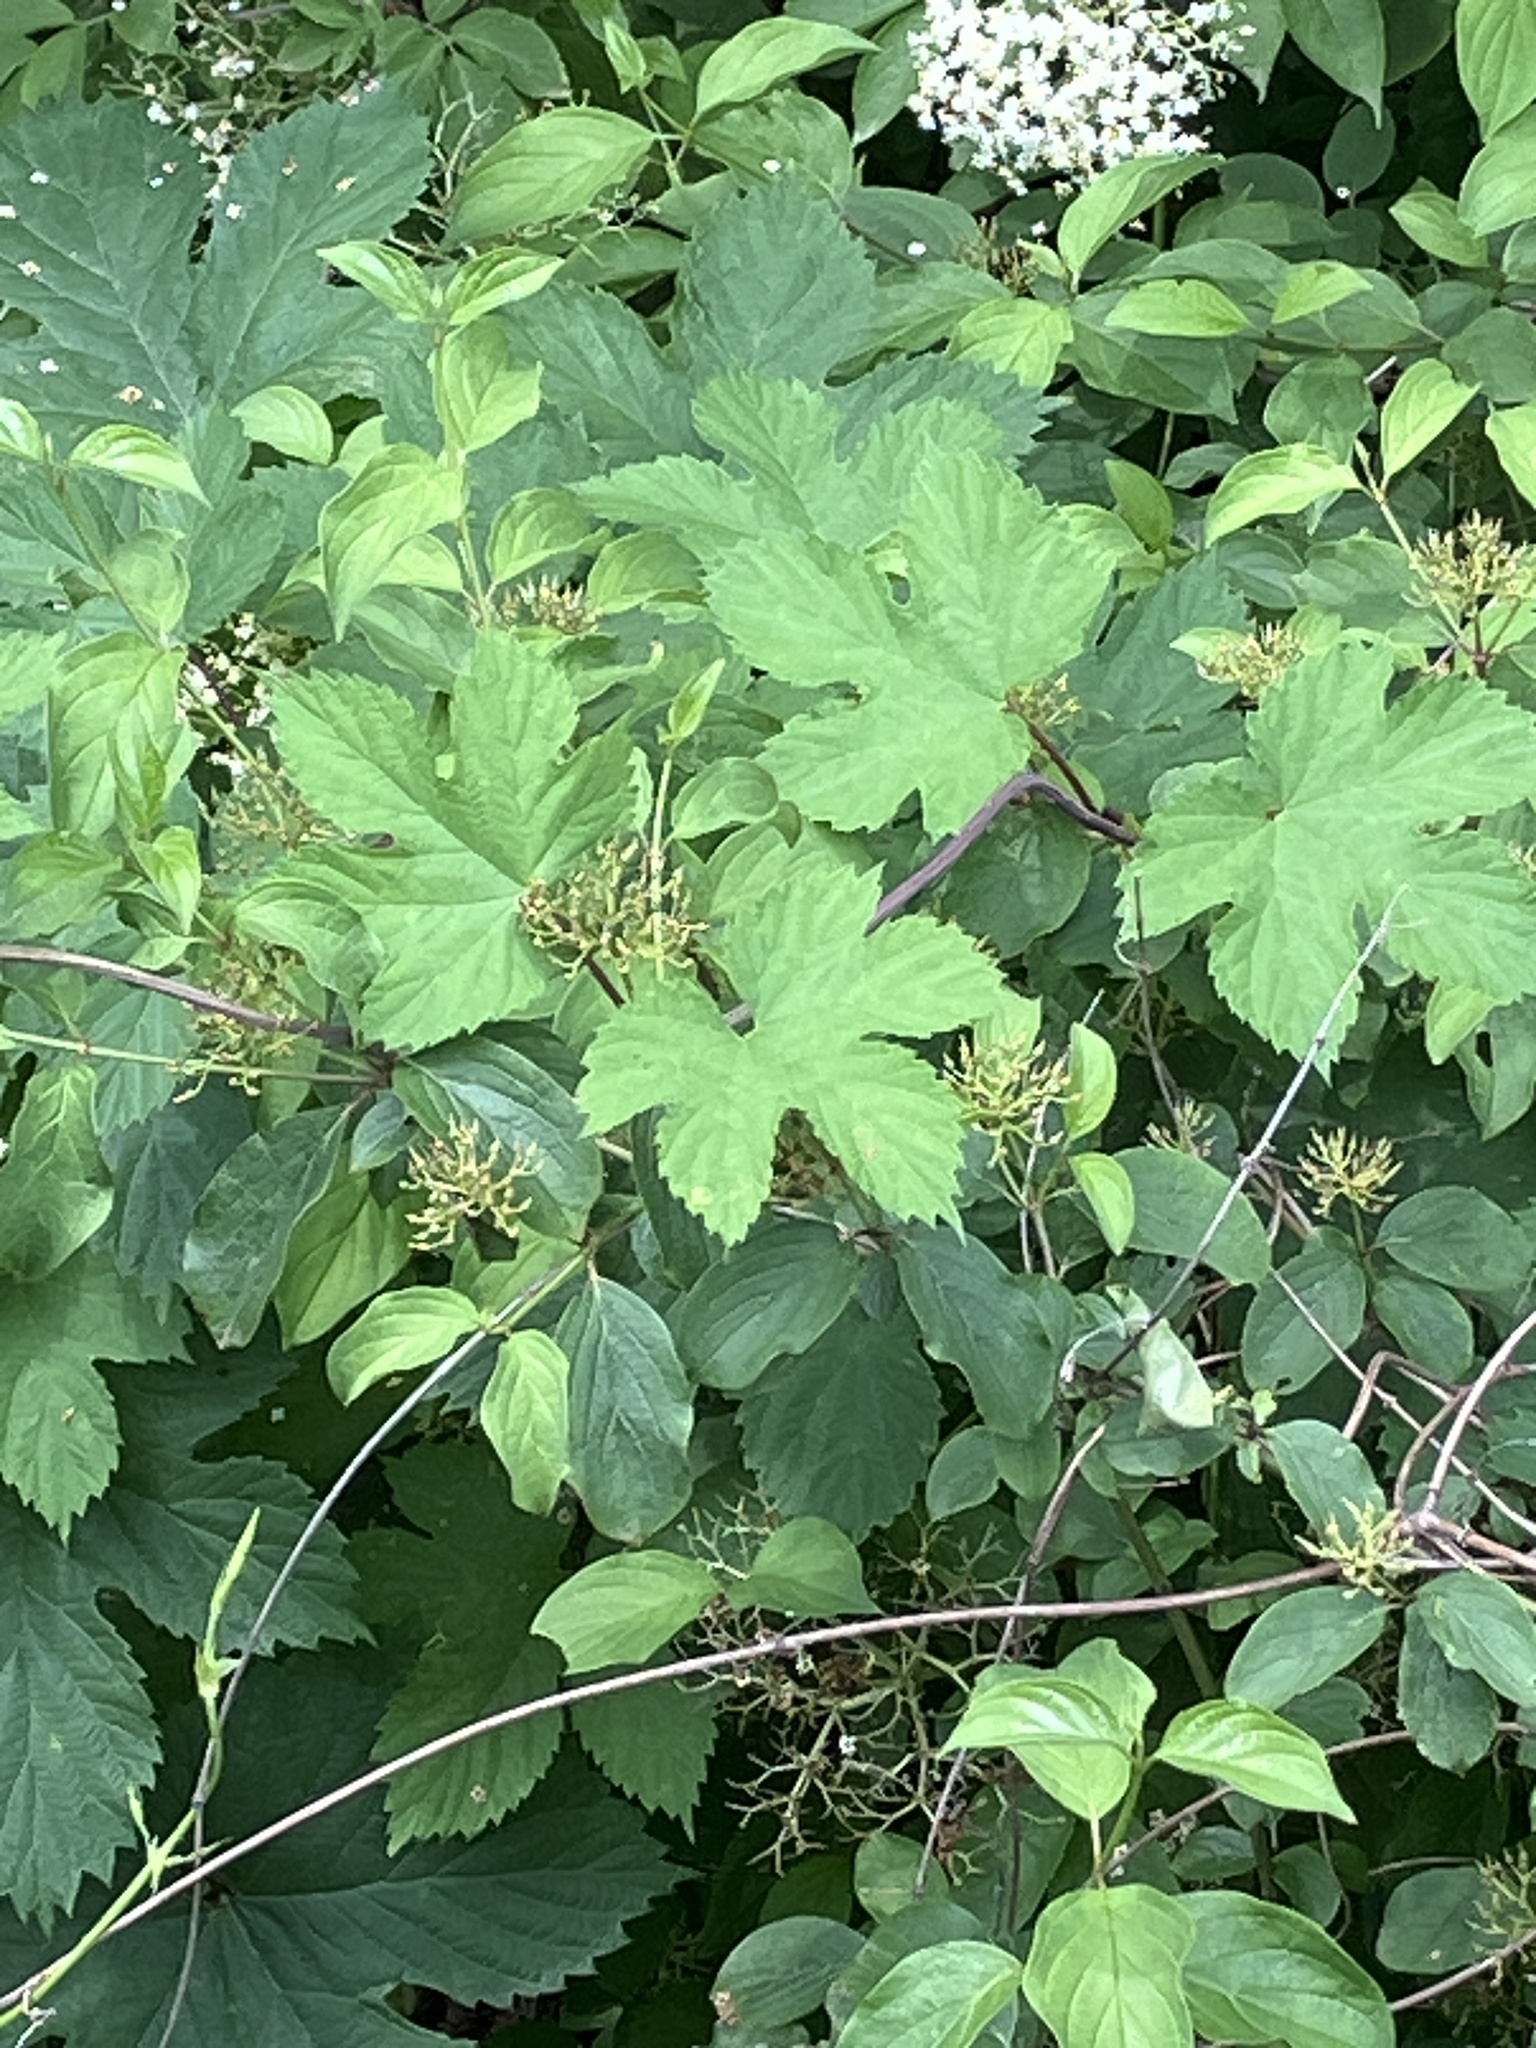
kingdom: Plantae
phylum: Tracheophyta
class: Magnoliopsida
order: Rosales
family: Cannabaceae
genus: Humulus
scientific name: Humulus lupulus
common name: Hop
